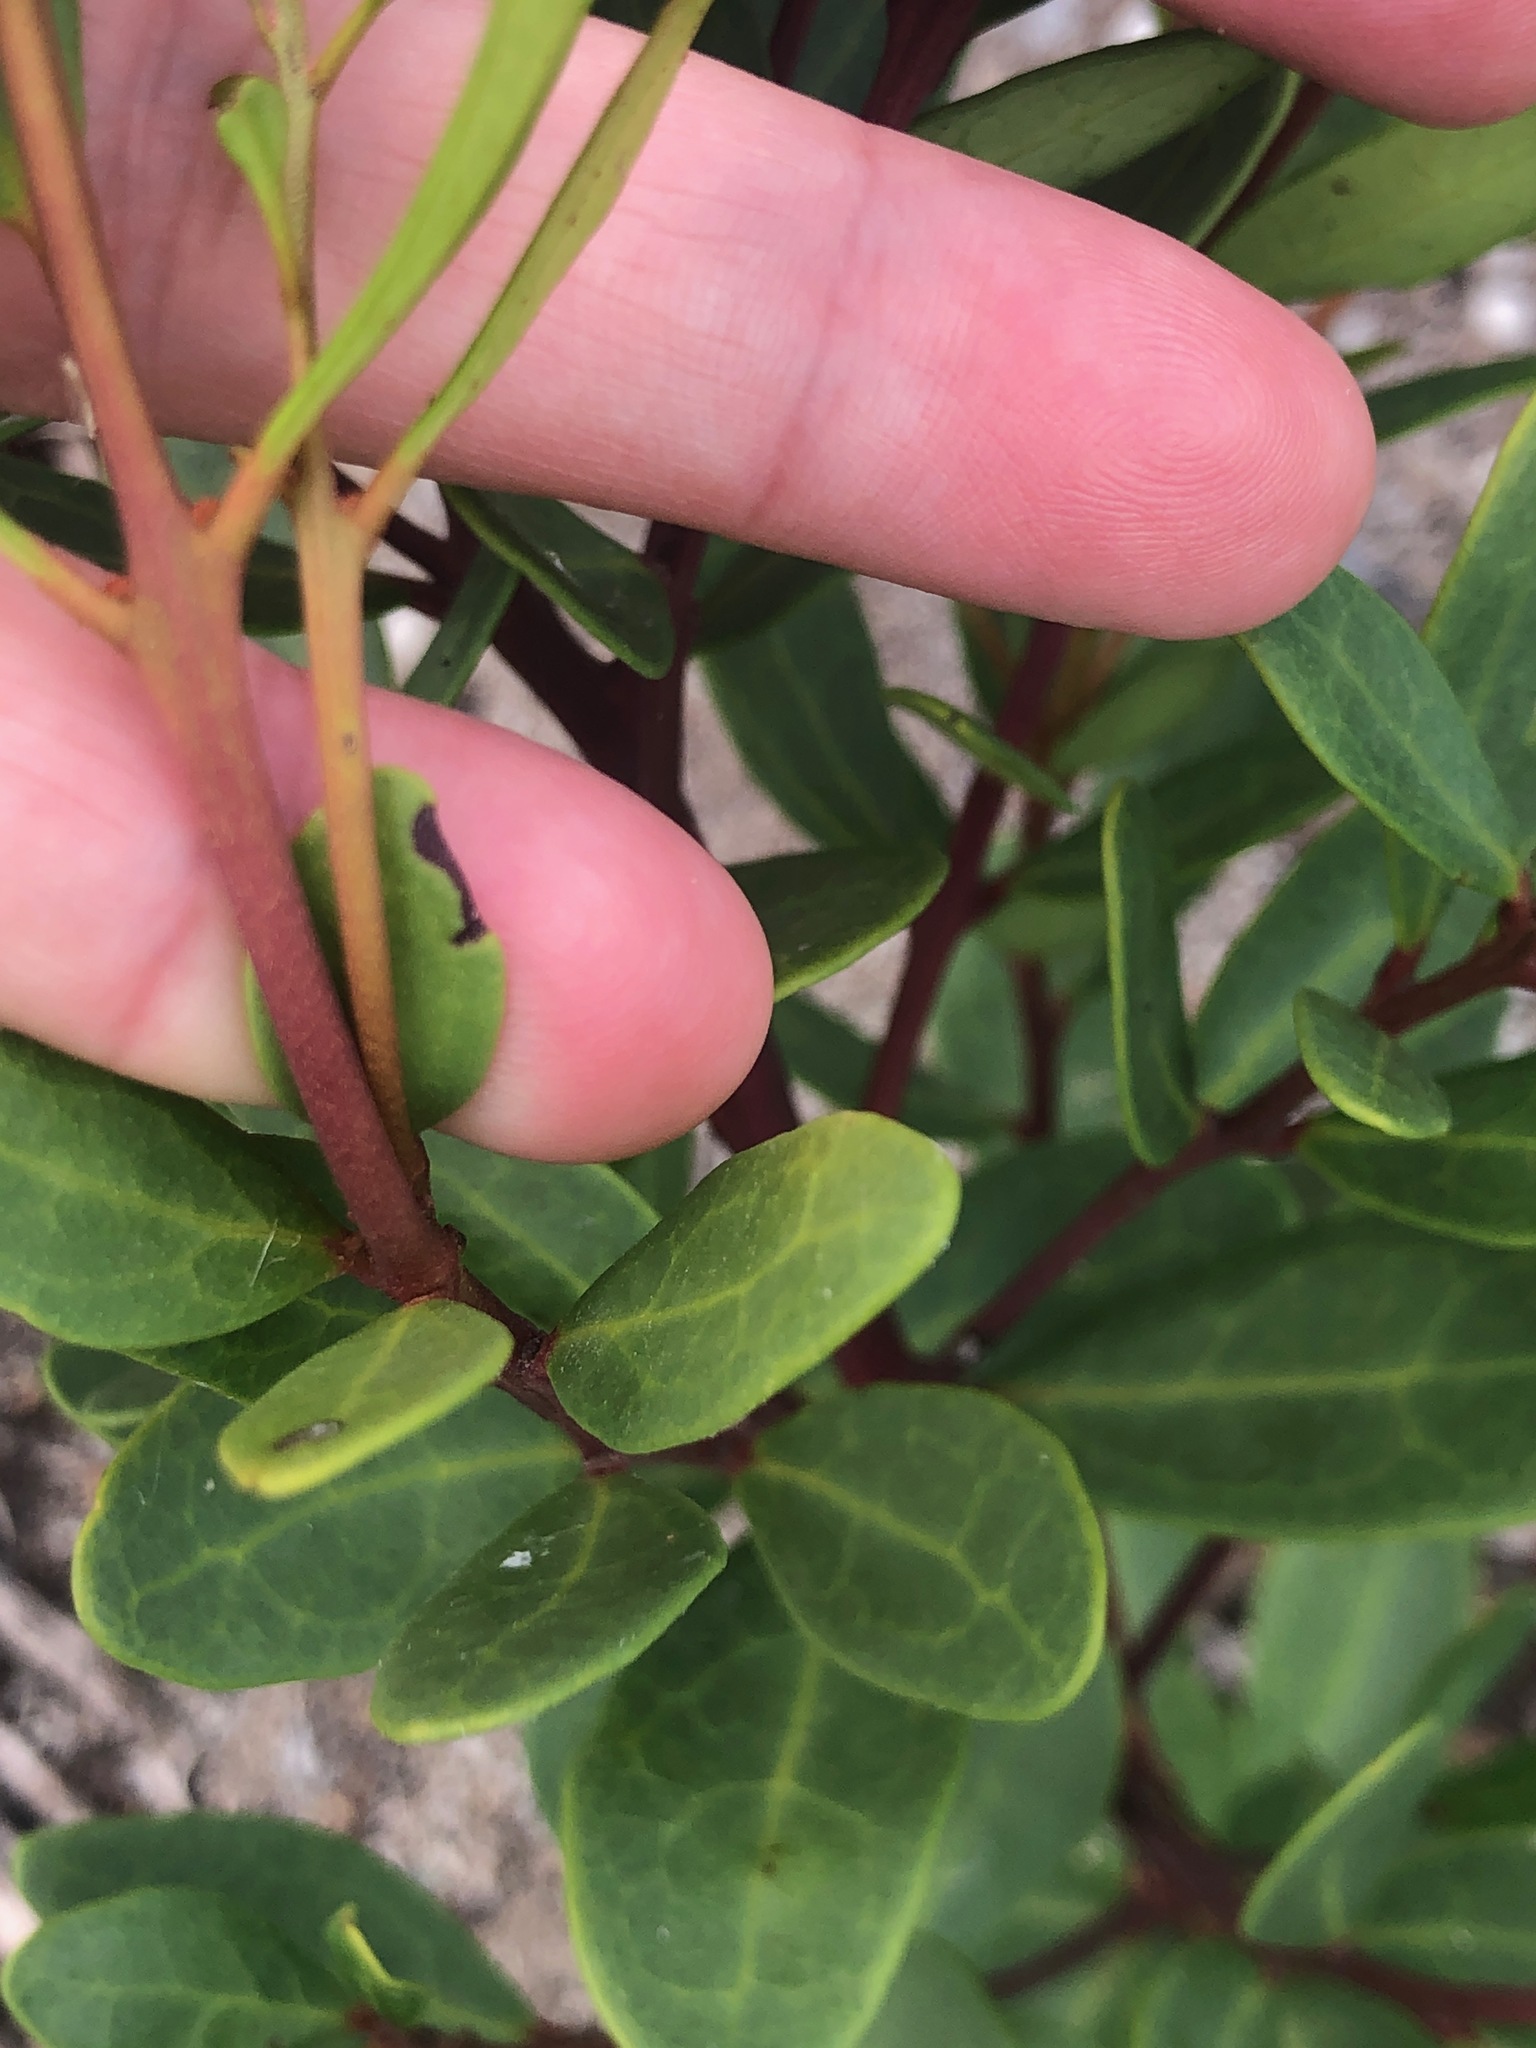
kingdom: Plantae
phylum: Tracheophyta
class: Magnoliopsida
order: Ericales
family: Ebenaceae
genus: Euclea
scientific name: Euclea racemosa
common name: Dune guarri
